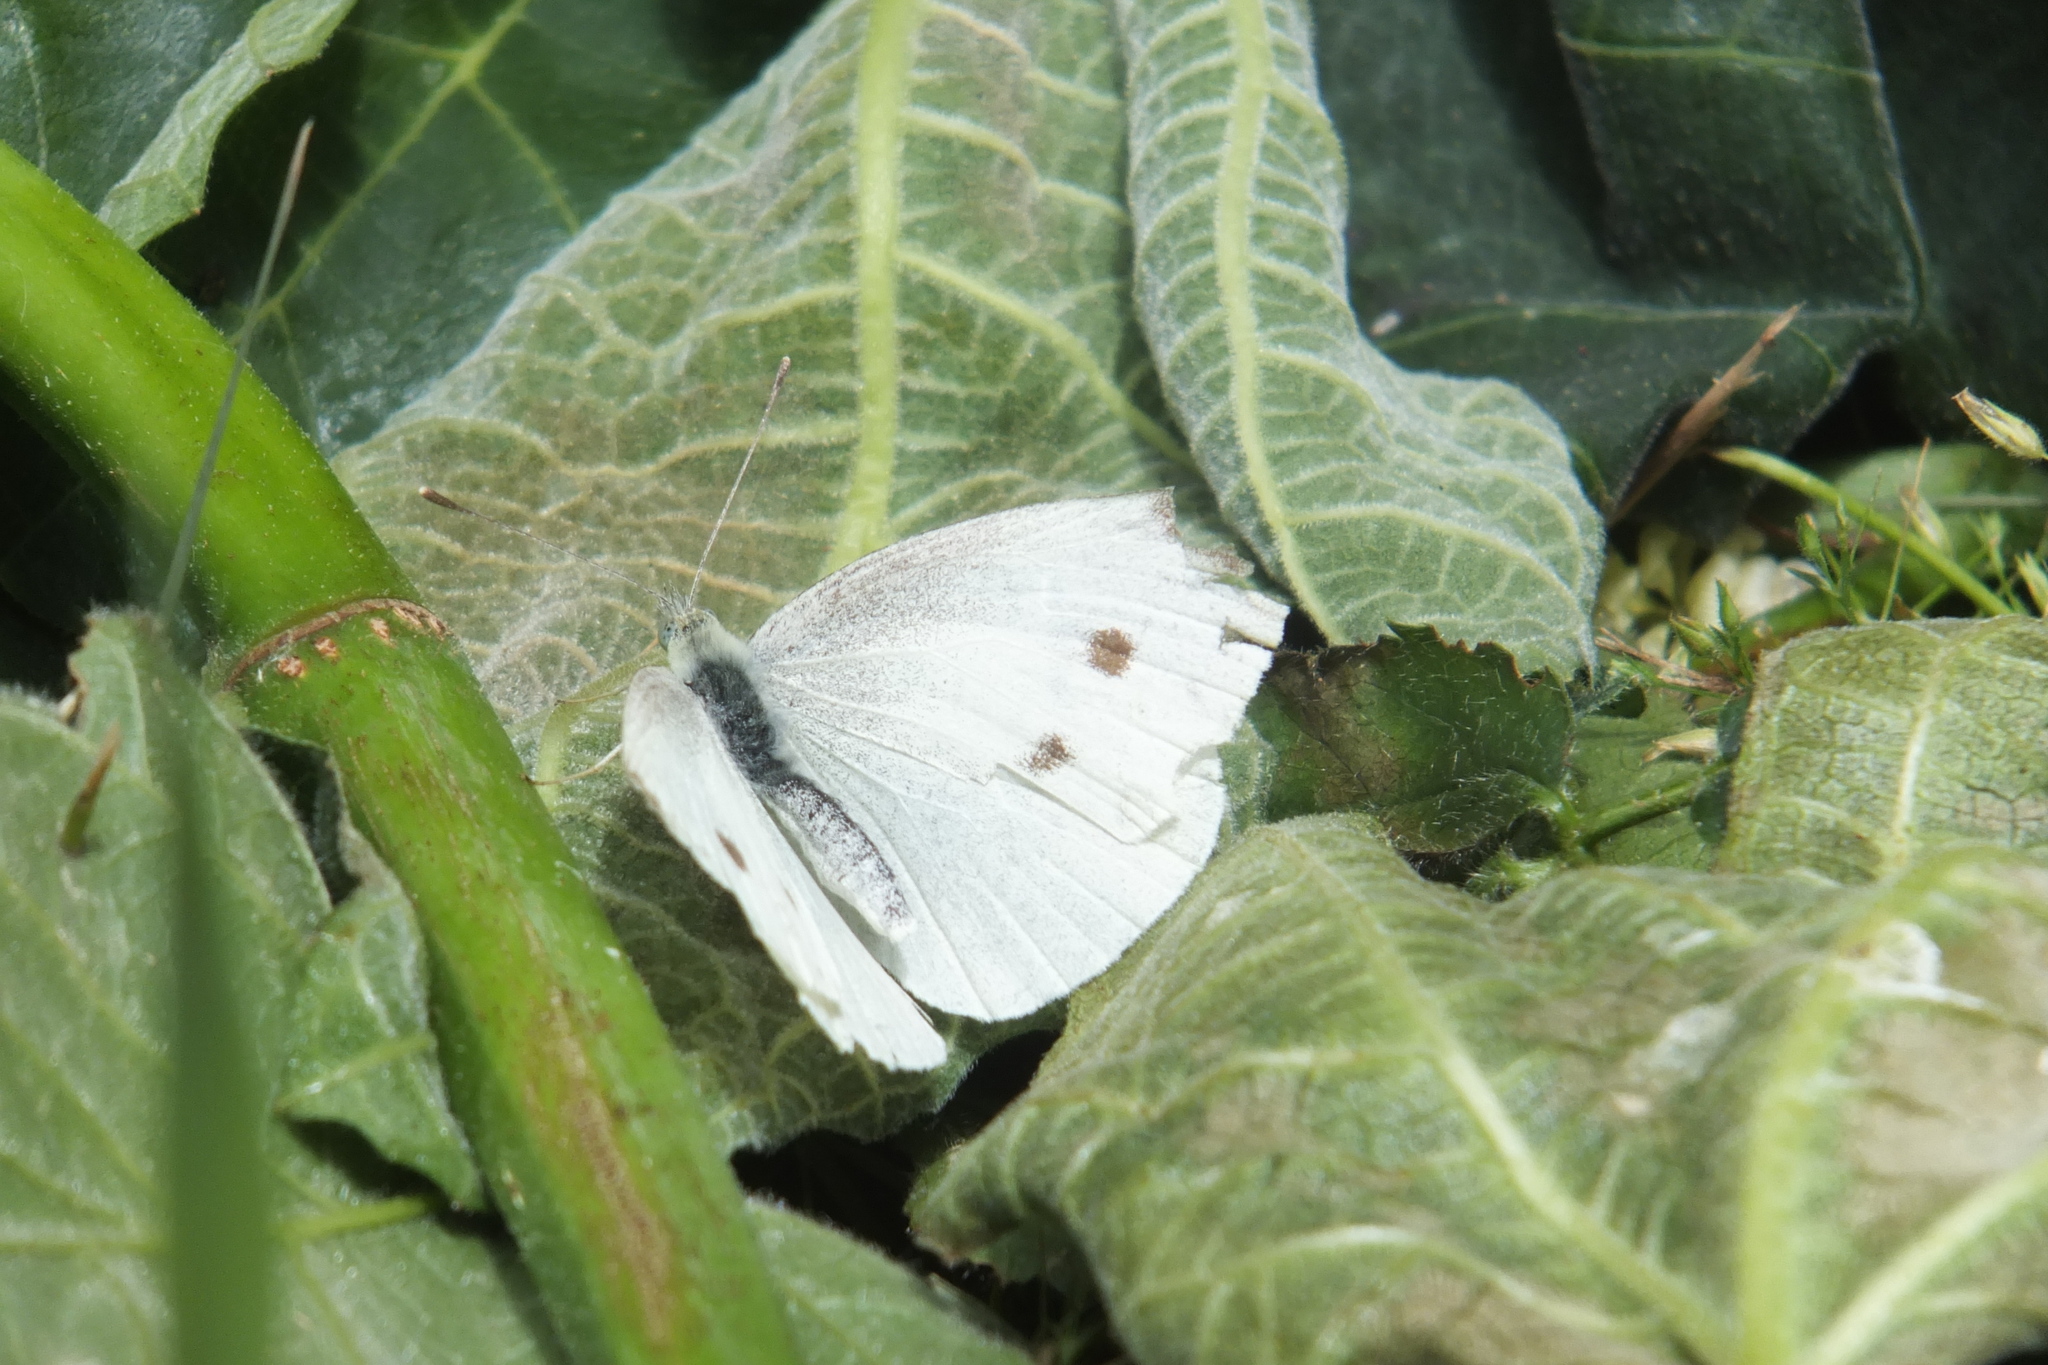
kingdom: Animalia
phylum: Arthropoda
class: Insecta
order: Lepidoptera
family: Pieridae
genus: Pieris
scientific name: Pieris rapae
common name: Small white
